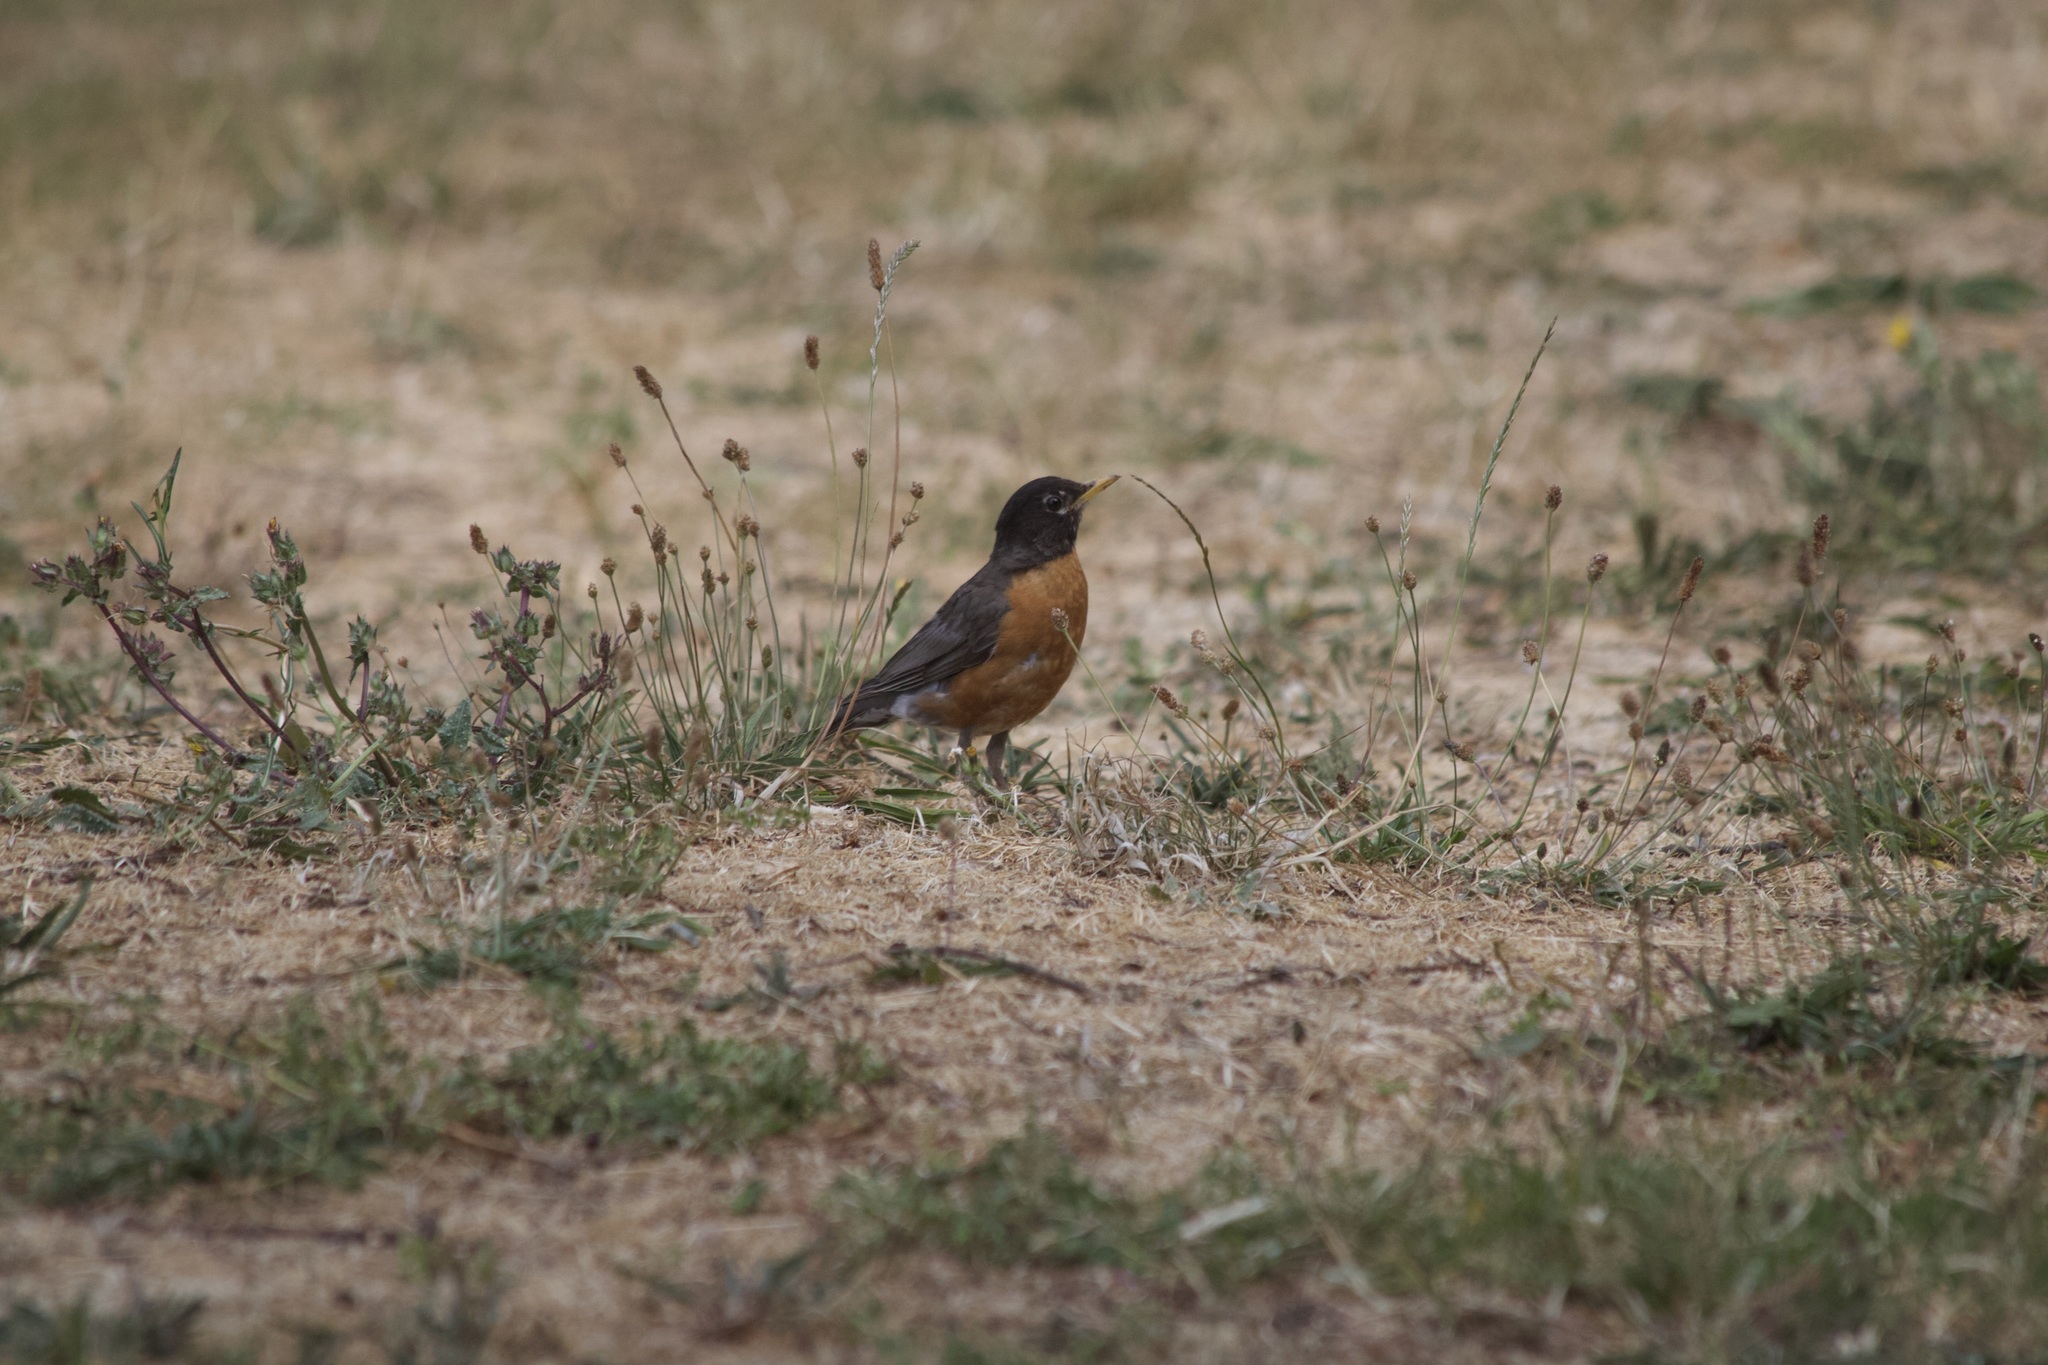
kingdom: Animalia
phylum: Chordata
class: Aves
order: Passeriformes
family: Turdidae
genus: Turdus
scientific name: Turdus migratorius
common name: American robin
